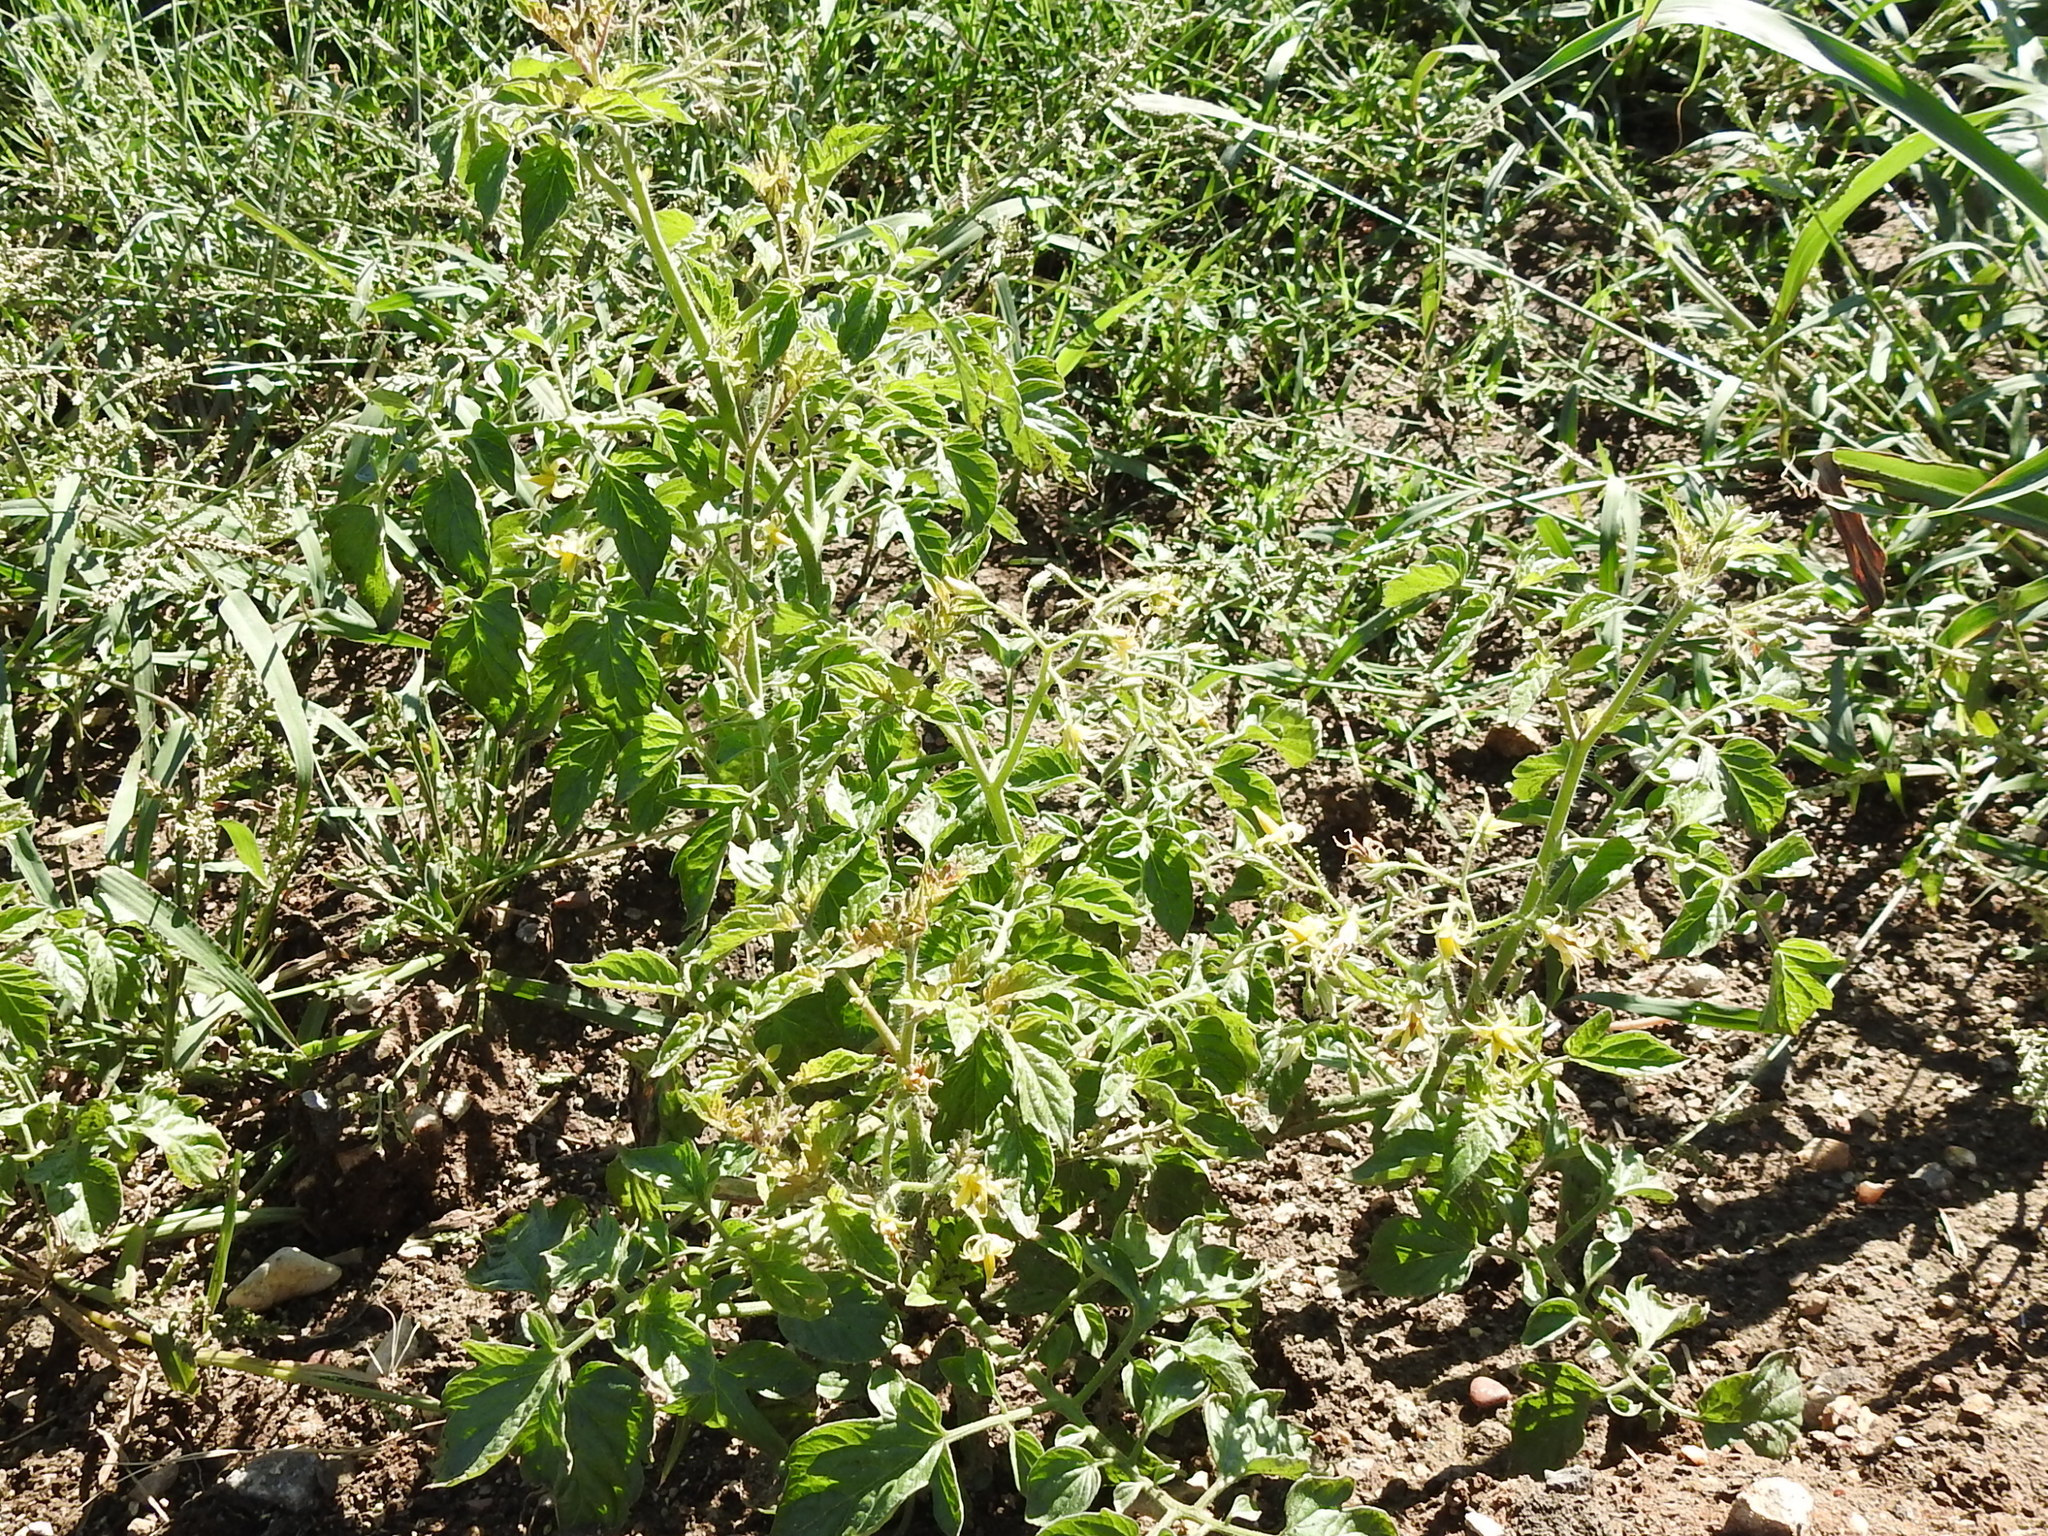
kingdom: Plantae
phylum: Tracheophyta
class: Magnoliopsida
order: Solanales
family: Solanaceae
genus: Solanum
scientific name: Solanum lycopersicum
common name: Garden tomato
